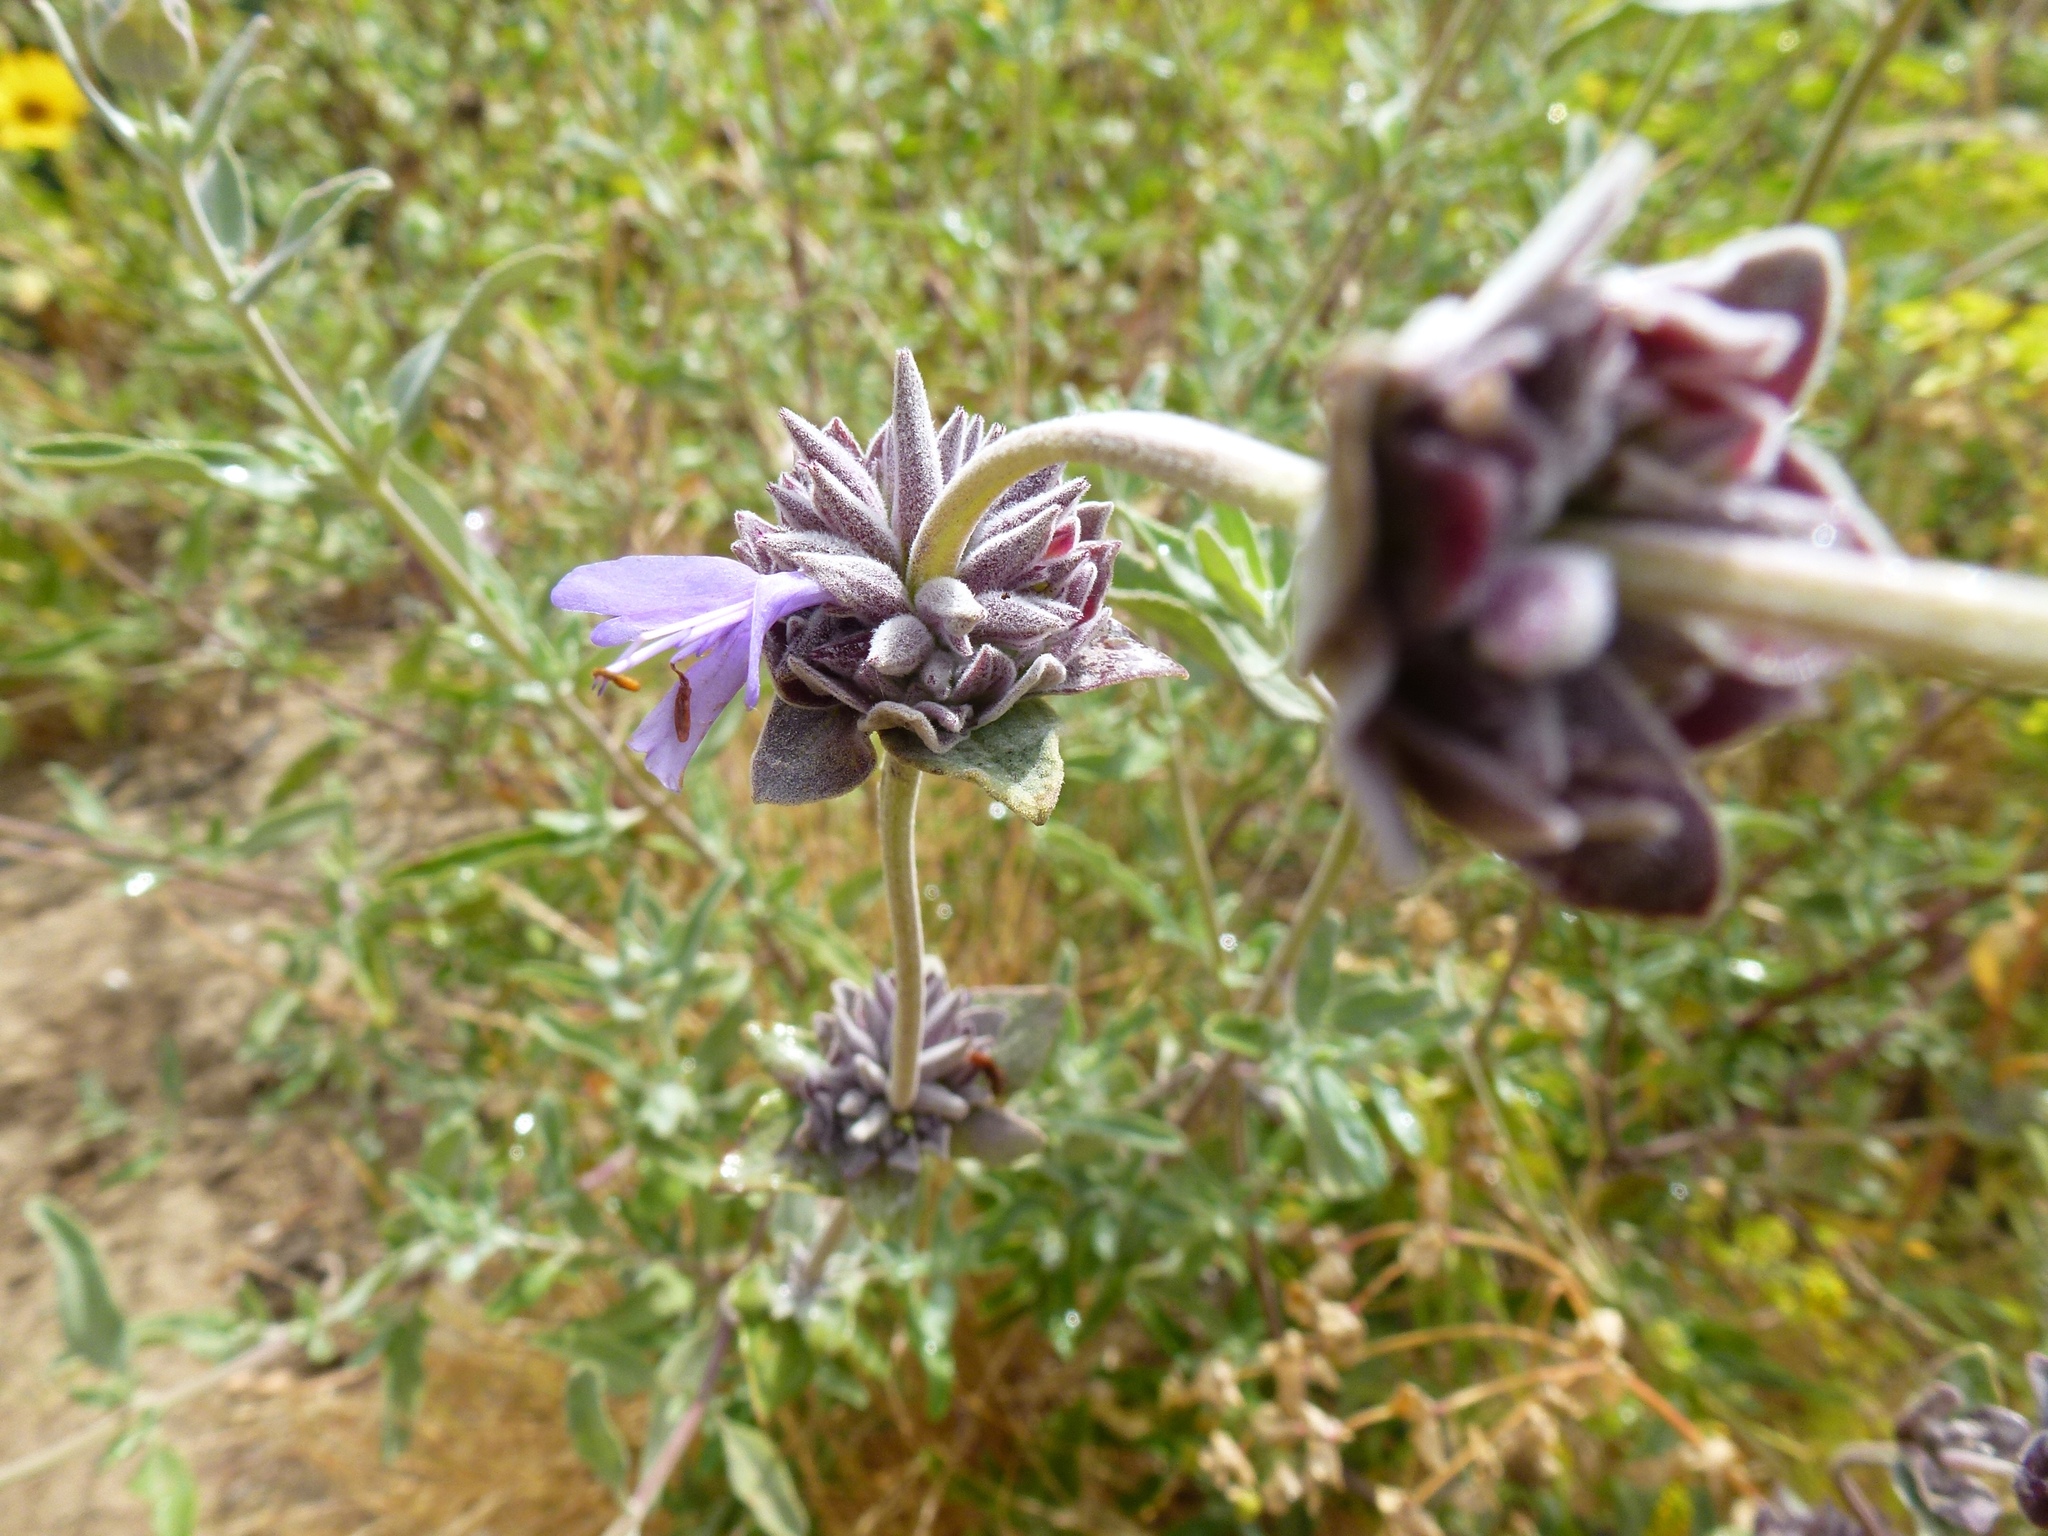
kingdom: Plantae
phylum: Tracheophyta
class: Magnoliopsida
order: Lamiales
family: Lamiaceae
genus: Salvia
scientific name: Salvia mellifera
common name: Black sage
